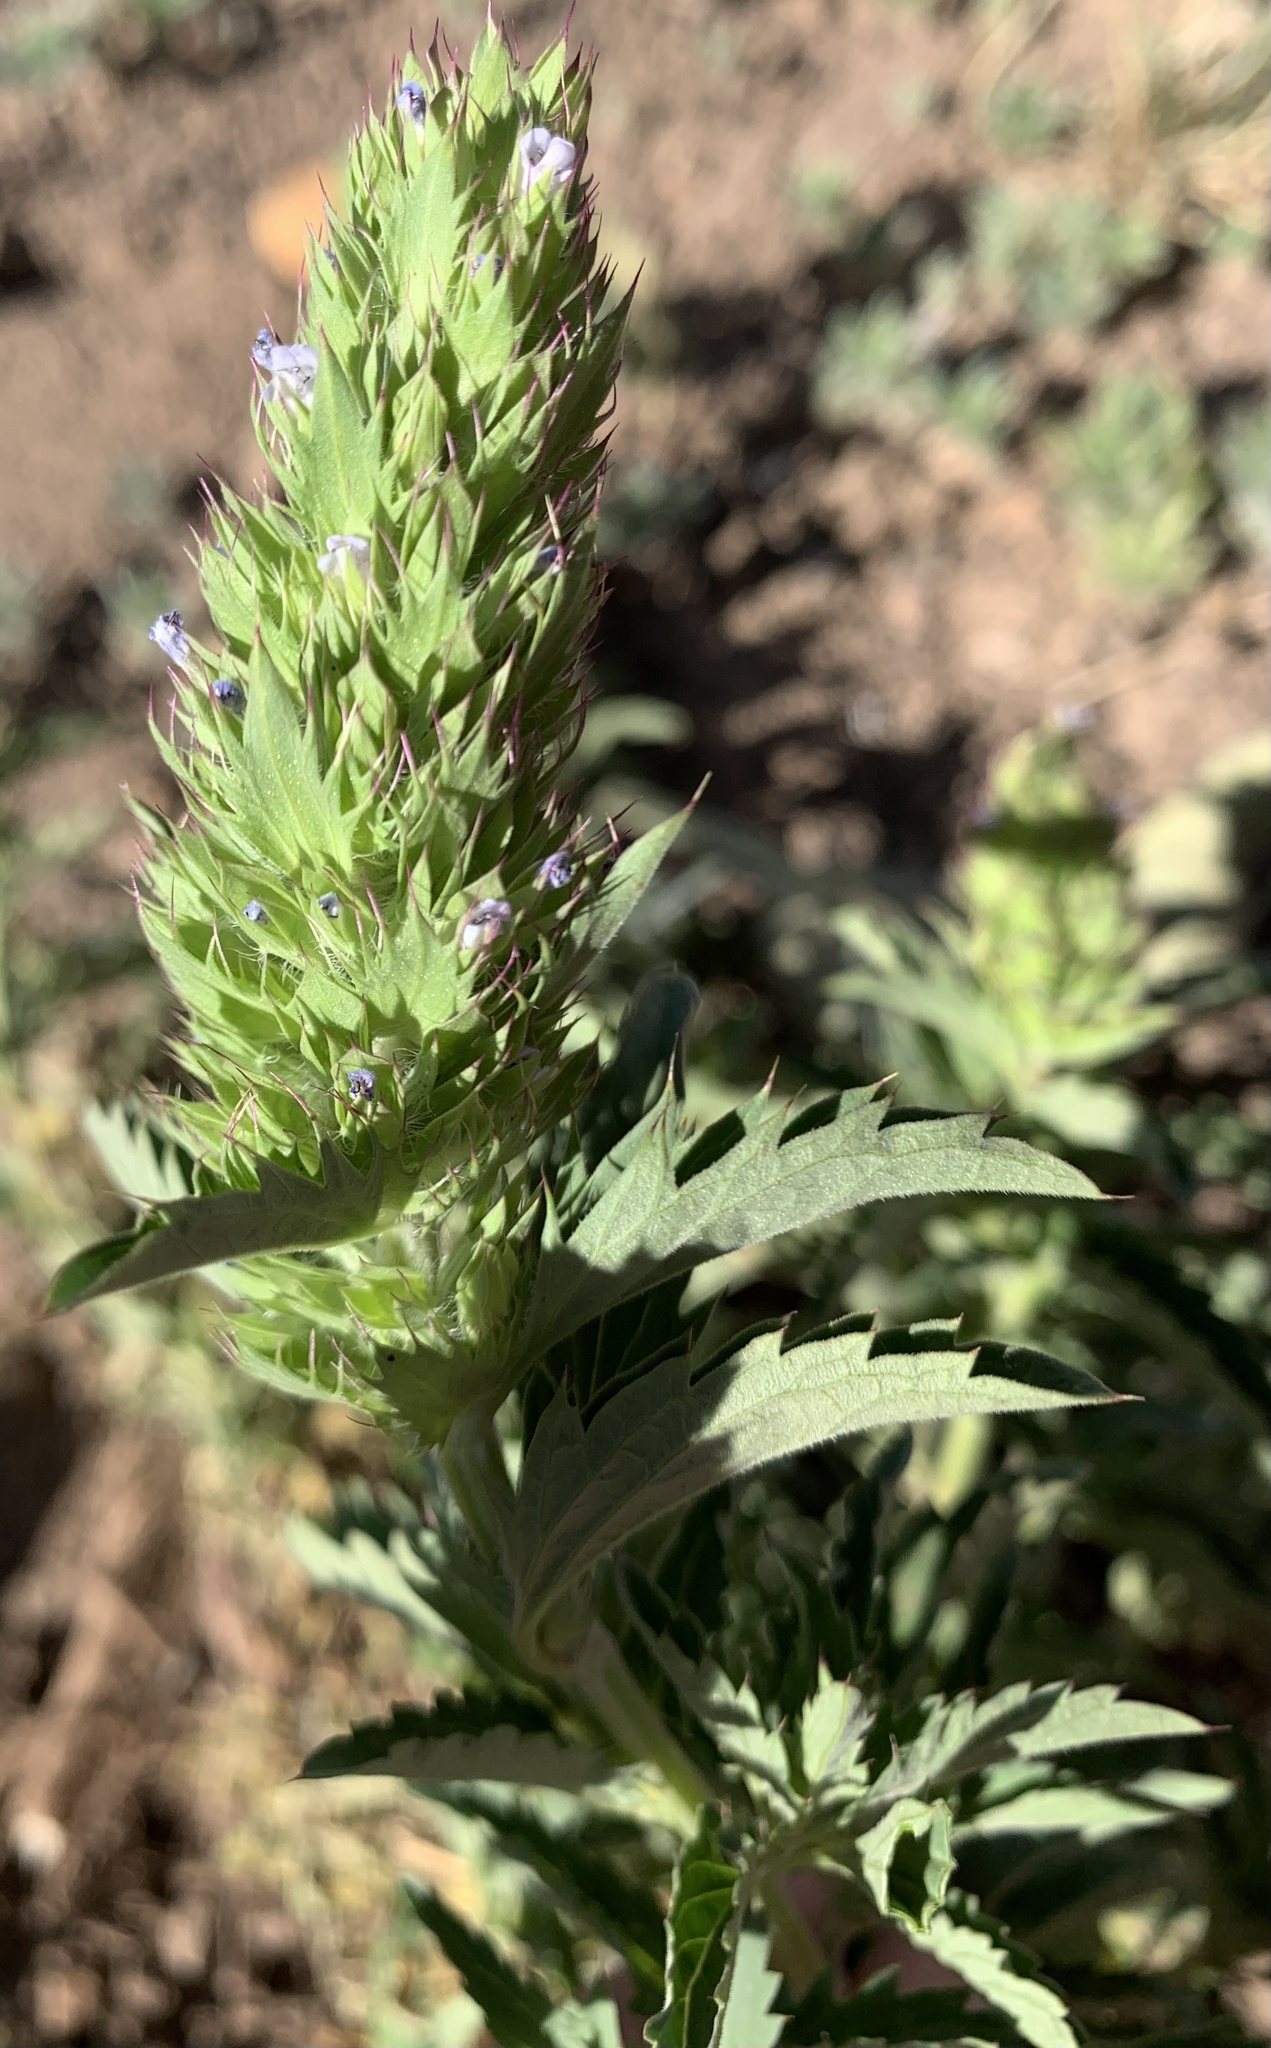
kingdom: Plantae
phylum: Tracheophyta
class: Magnoliopsida
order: Lamiales
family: Lamiaceae
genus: Dracocephalum
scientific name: Dracocephalum parviflorum
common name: American dragonhead
